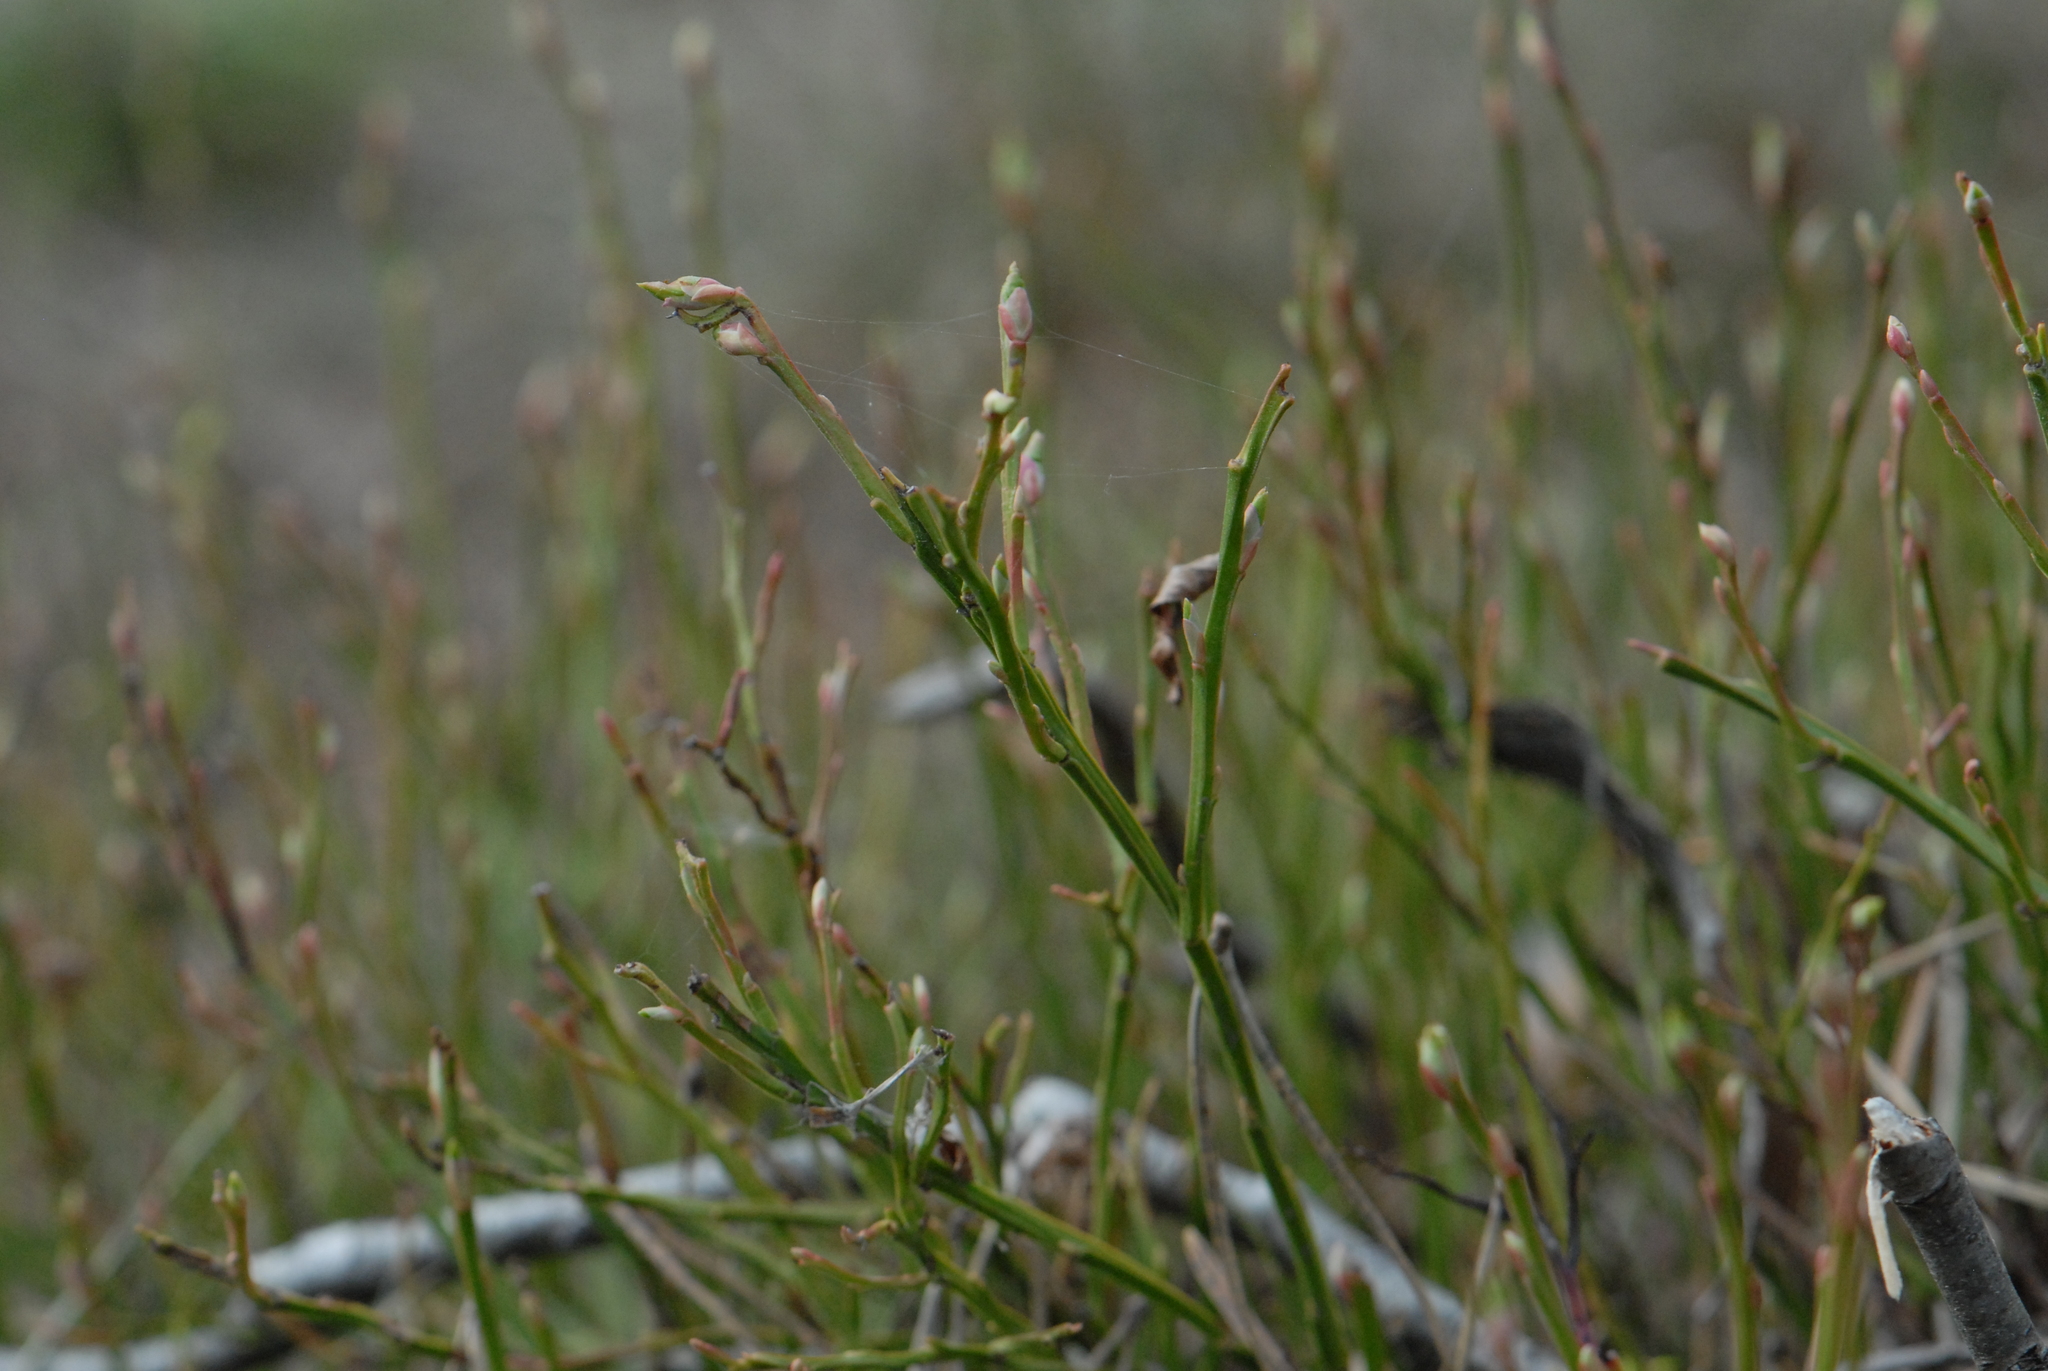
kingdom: Plantae
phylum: Tracheophyta
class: Magnoliopsida
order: Ericales
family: Ericaceae
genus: Vaccinium
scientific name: Vaccinium myrtillus
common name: Bilberry
